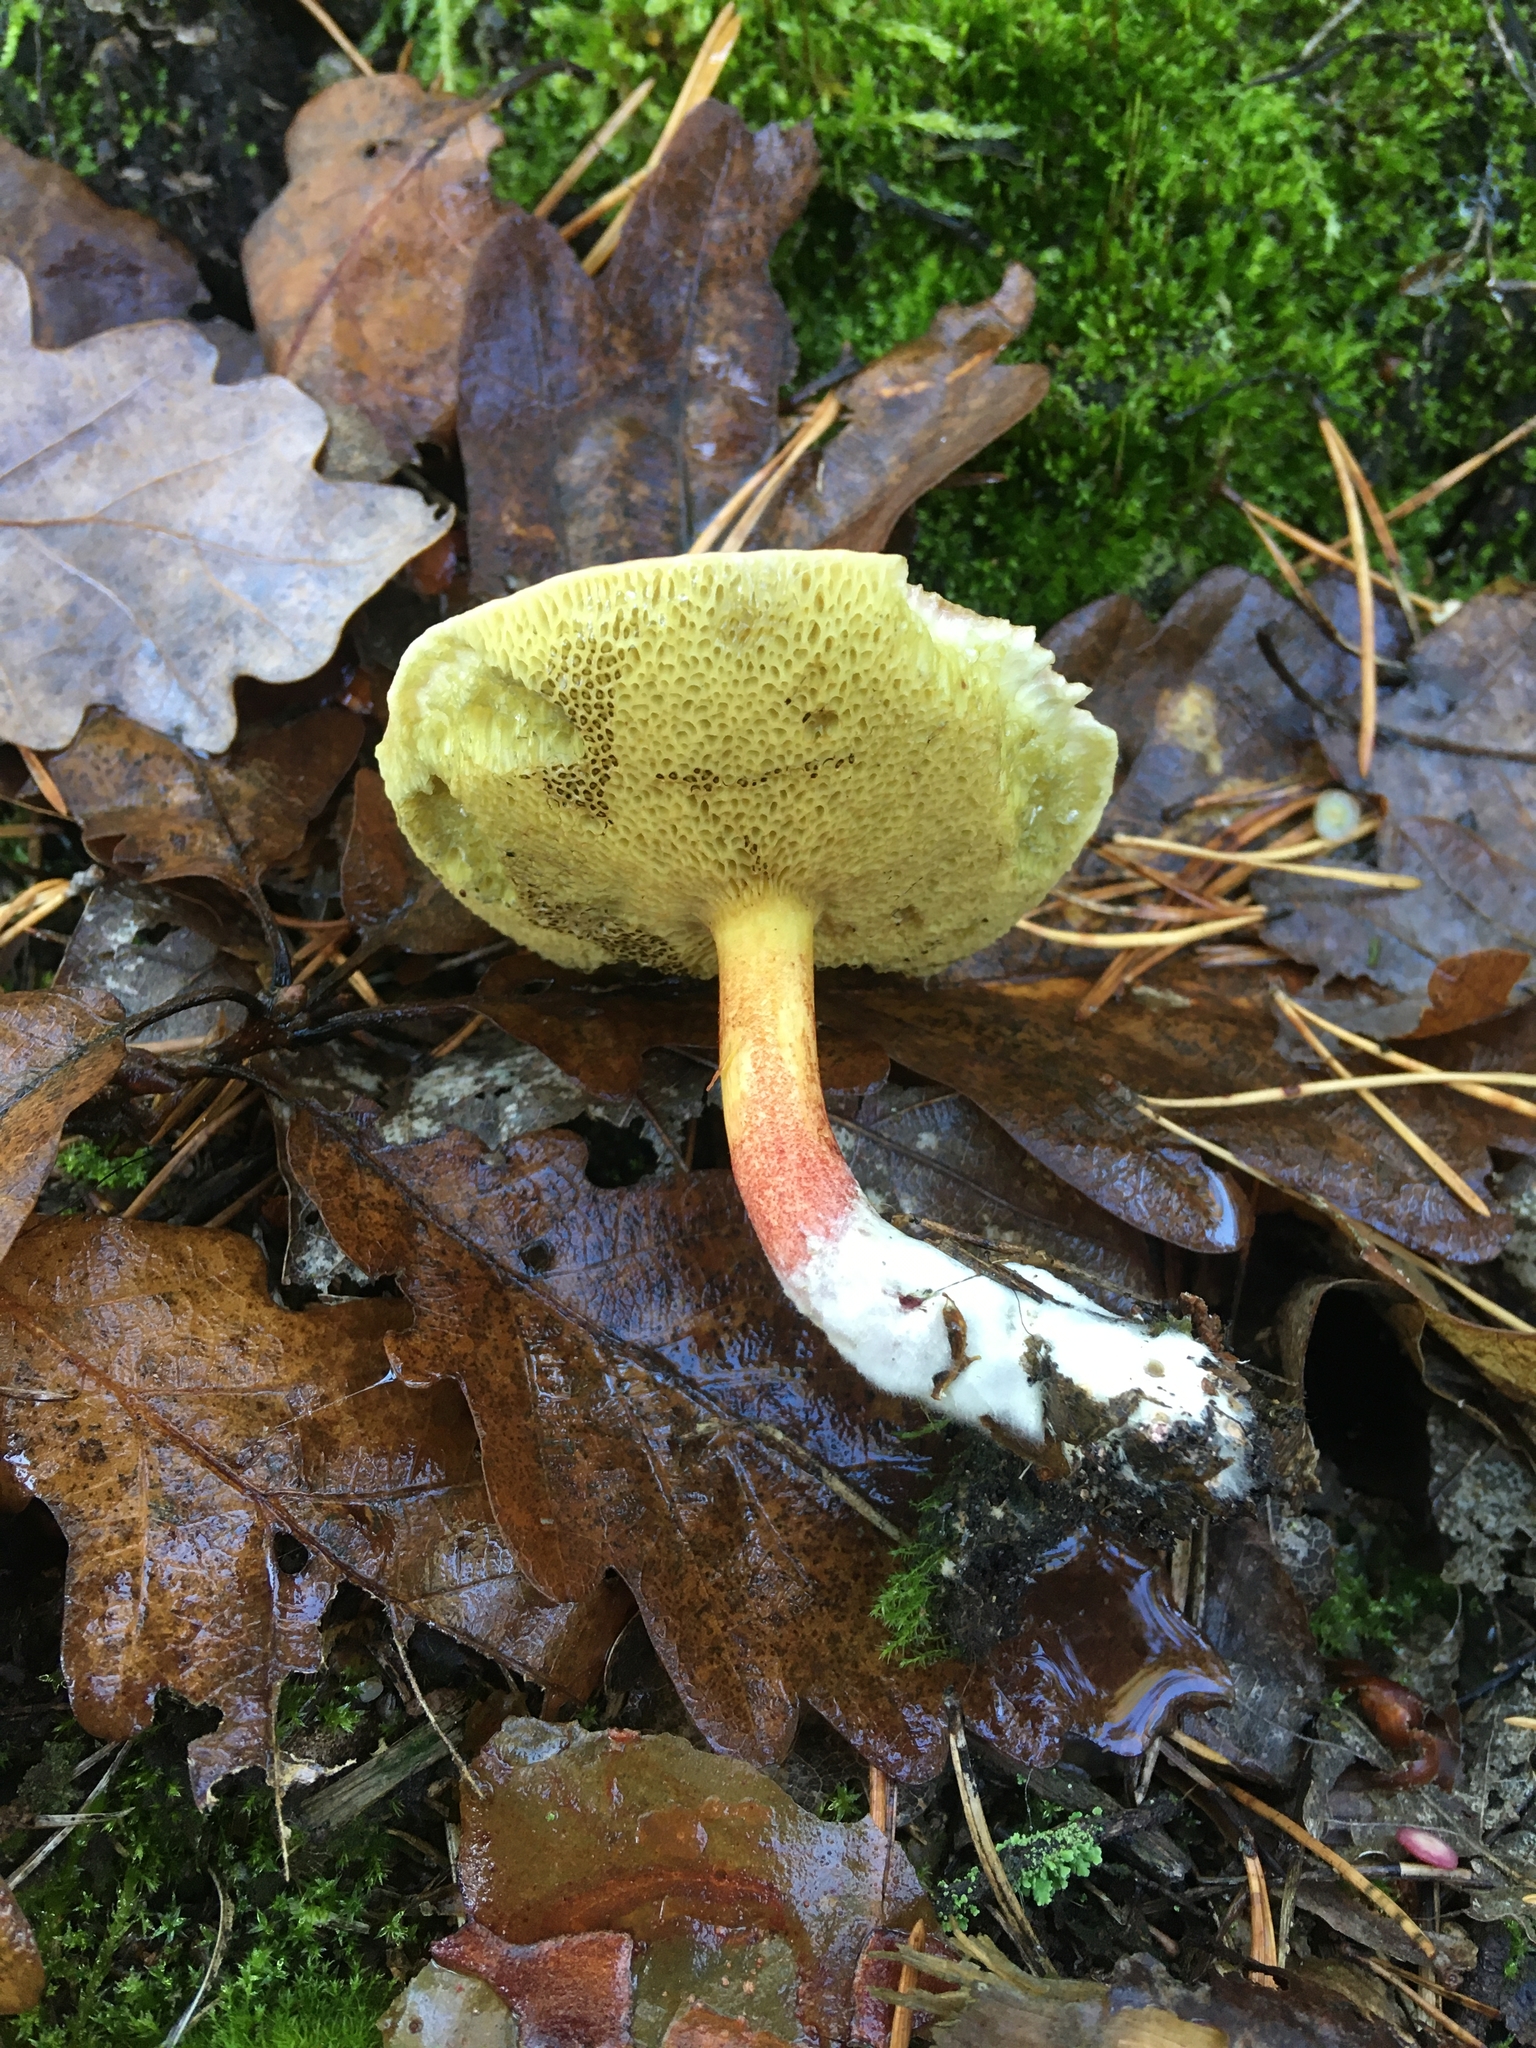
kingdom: Fungi
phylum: Basidiomycota
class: Agaricomycetes
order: Boletales
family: Boletaceae
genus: Xerocomellus
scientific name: Xerocomellus chrysenteron
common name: Red-cracking bolete
